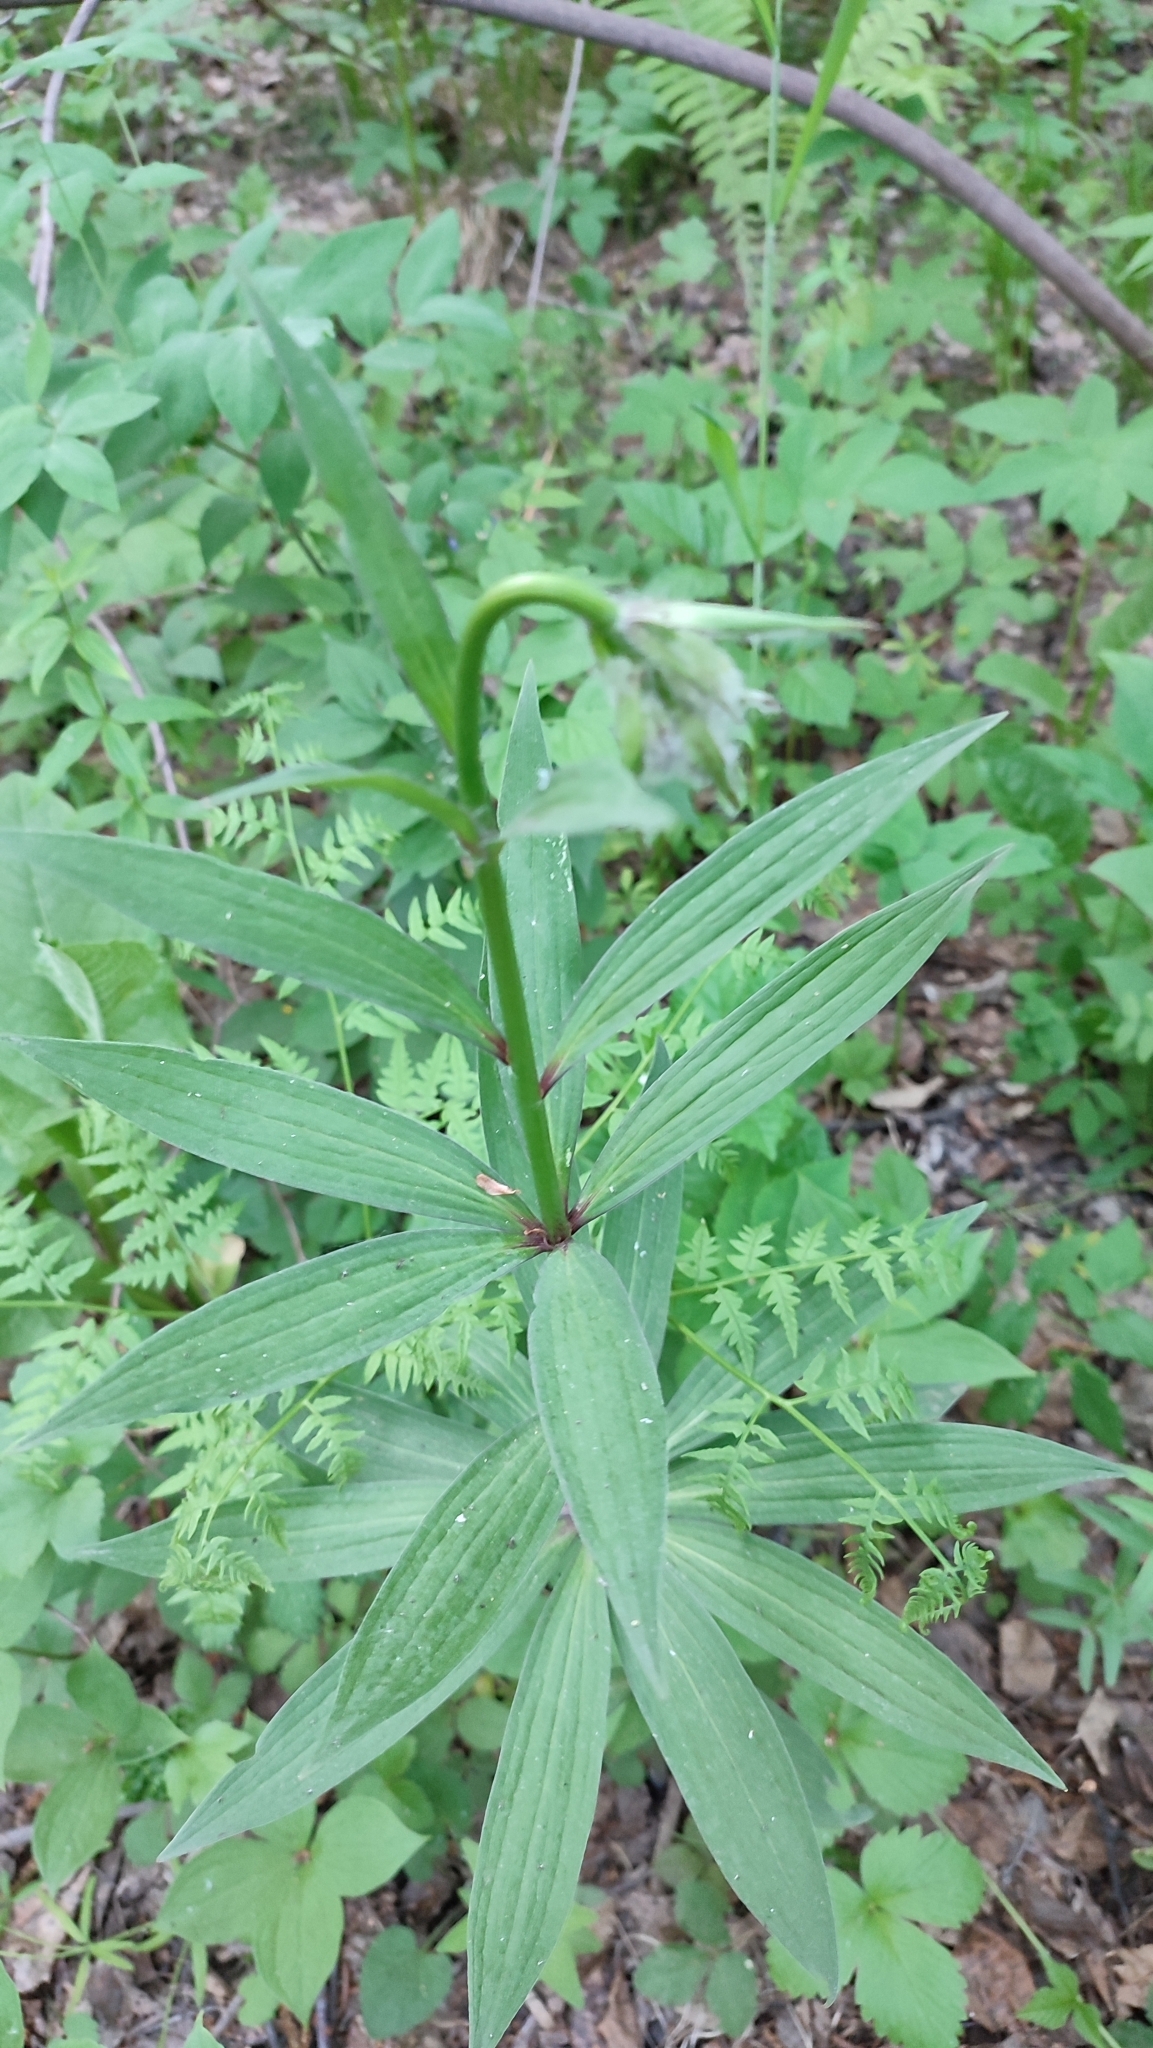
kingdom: Plantae
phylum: Tracheophyta
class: Liliopsida
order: Liliales
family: Liliaceae
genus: Lilium
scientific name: Lilium martagon
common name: Martagon lily
